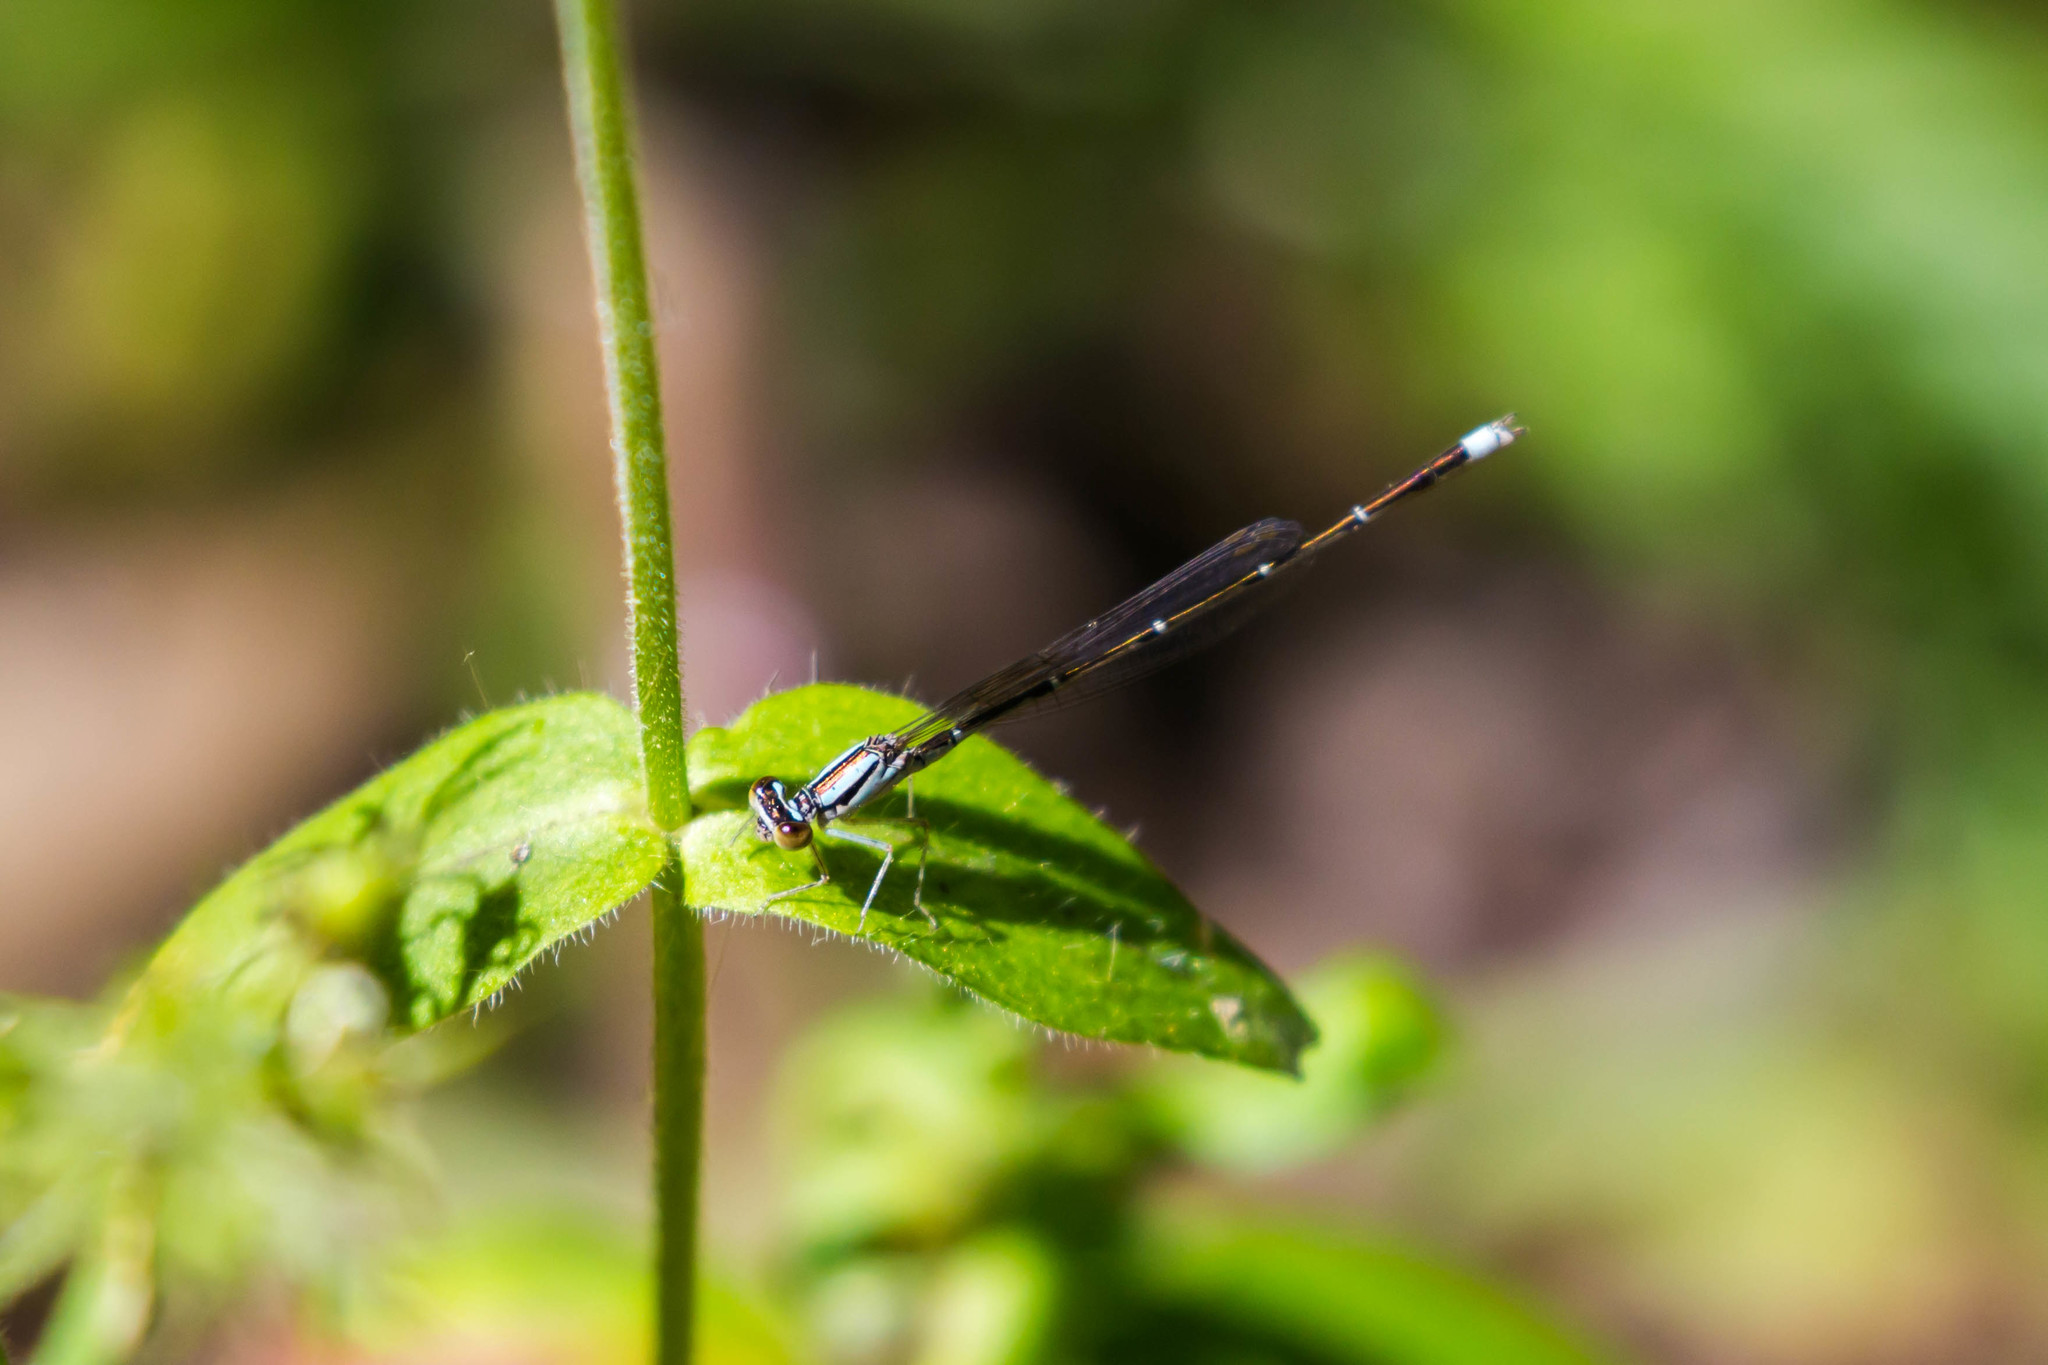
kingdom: Animalia
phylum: Arthropoda
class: Insecta
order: Odonata
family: Coenagrionidae
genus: Enallagma
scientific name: Enallagma signatum
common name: Orange bluet
